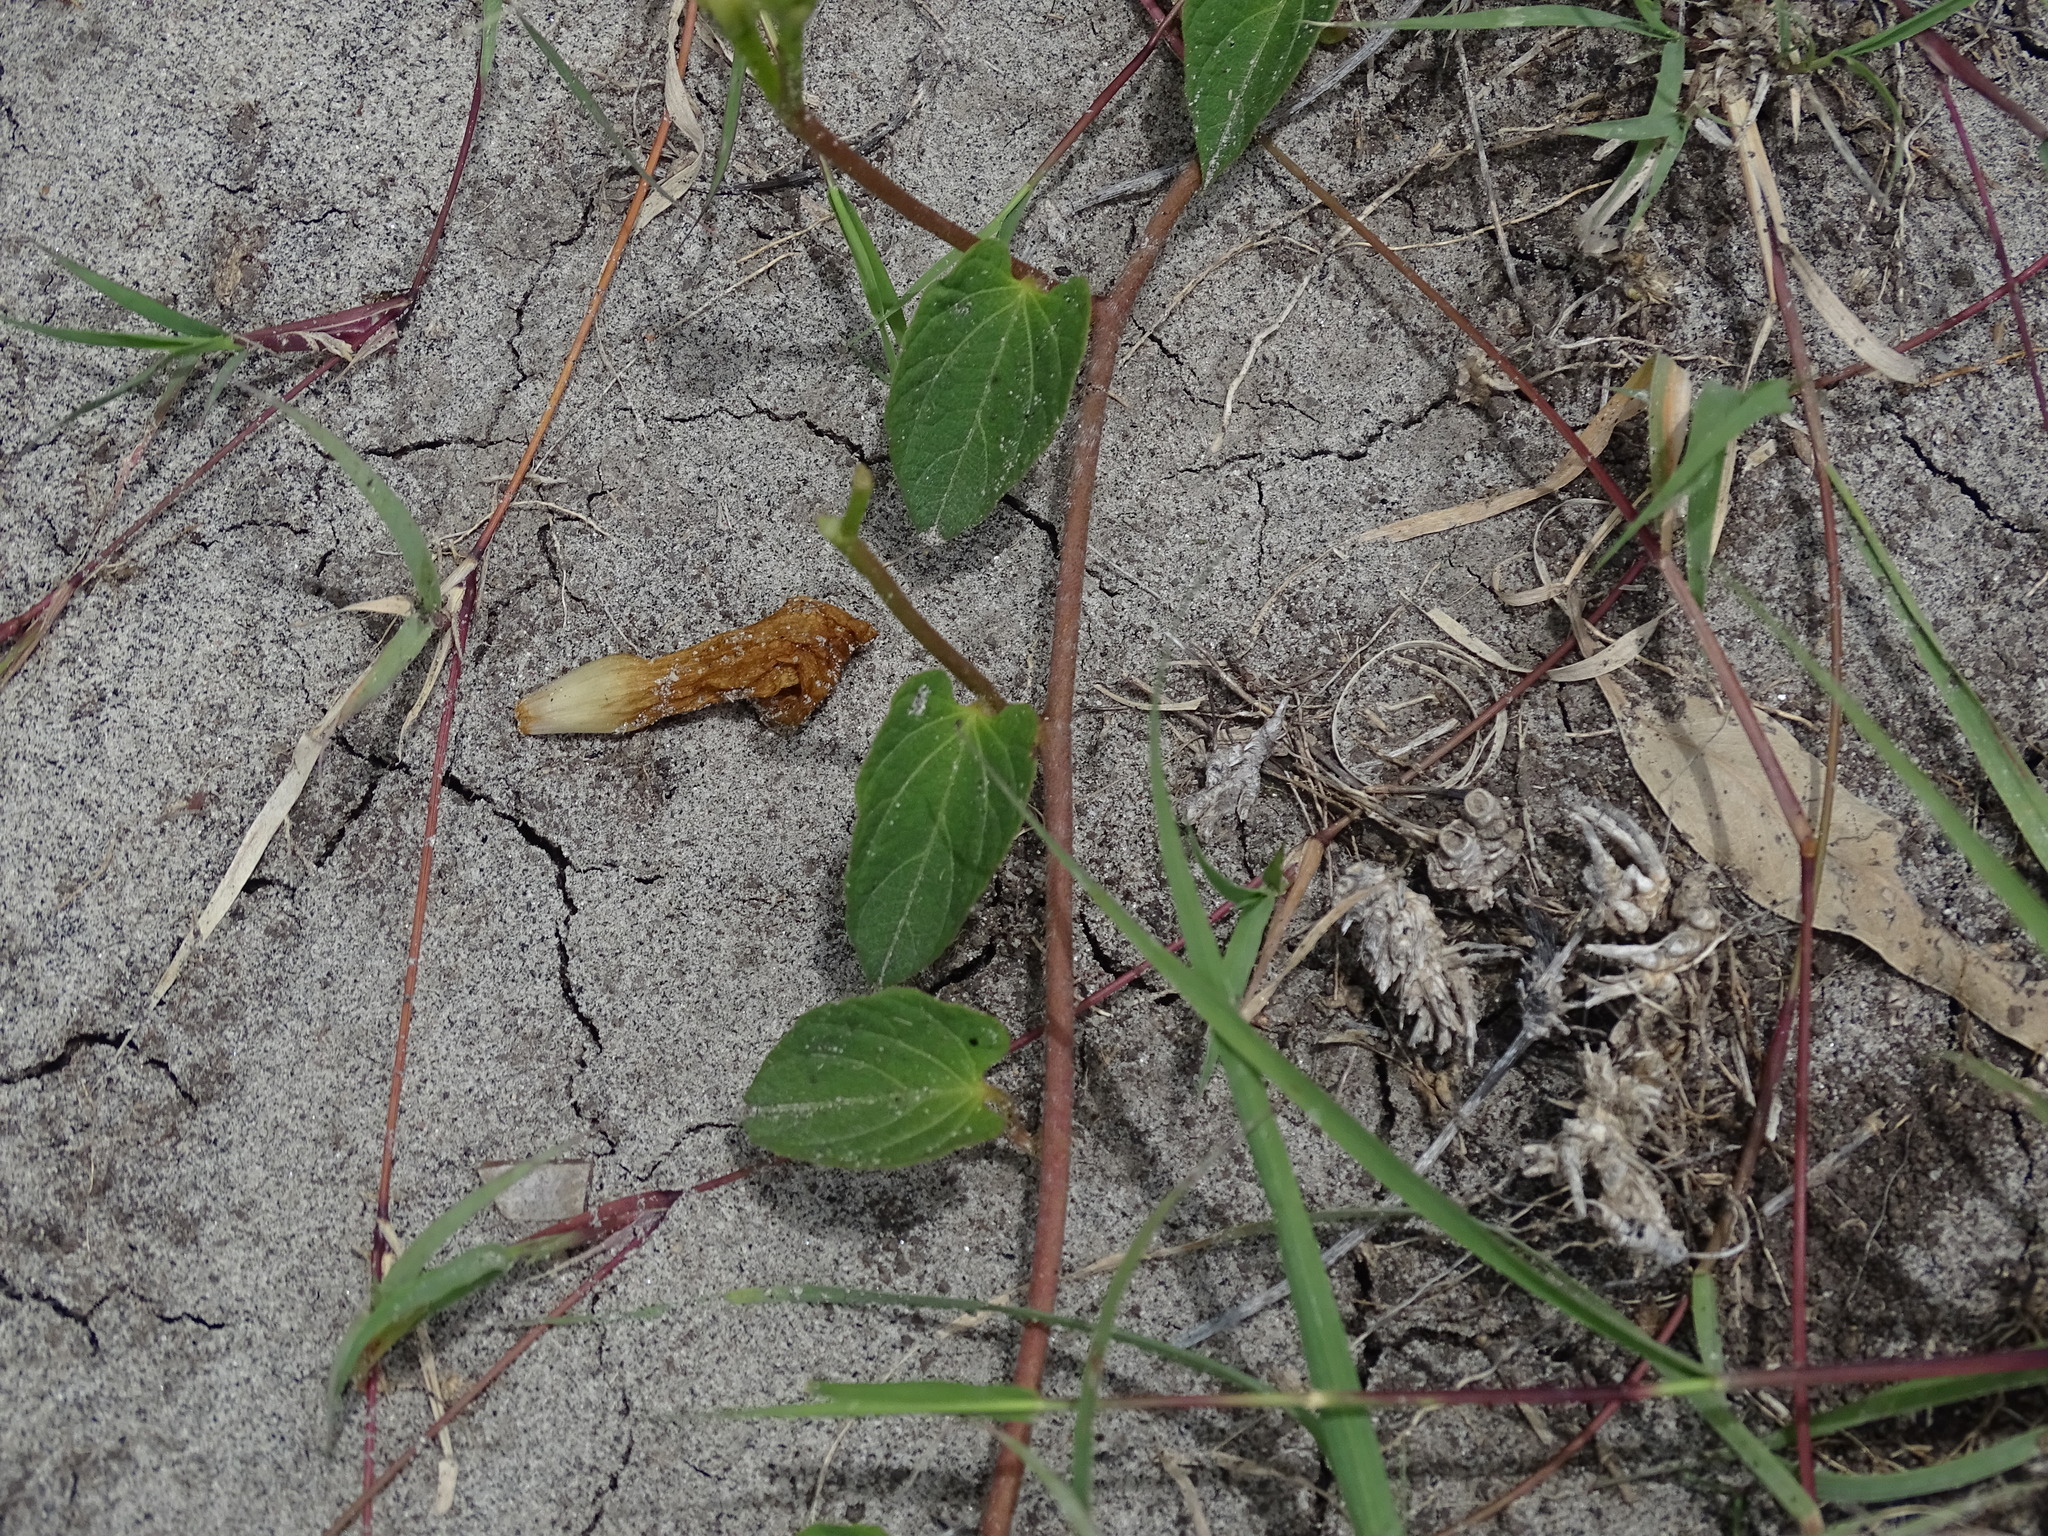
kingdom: Plantae
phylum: Tracheophyta
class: Magnoliopsida
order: Solanales
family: Convolvulaceae
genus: Ipomoea
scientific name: Ipomoea proxima
